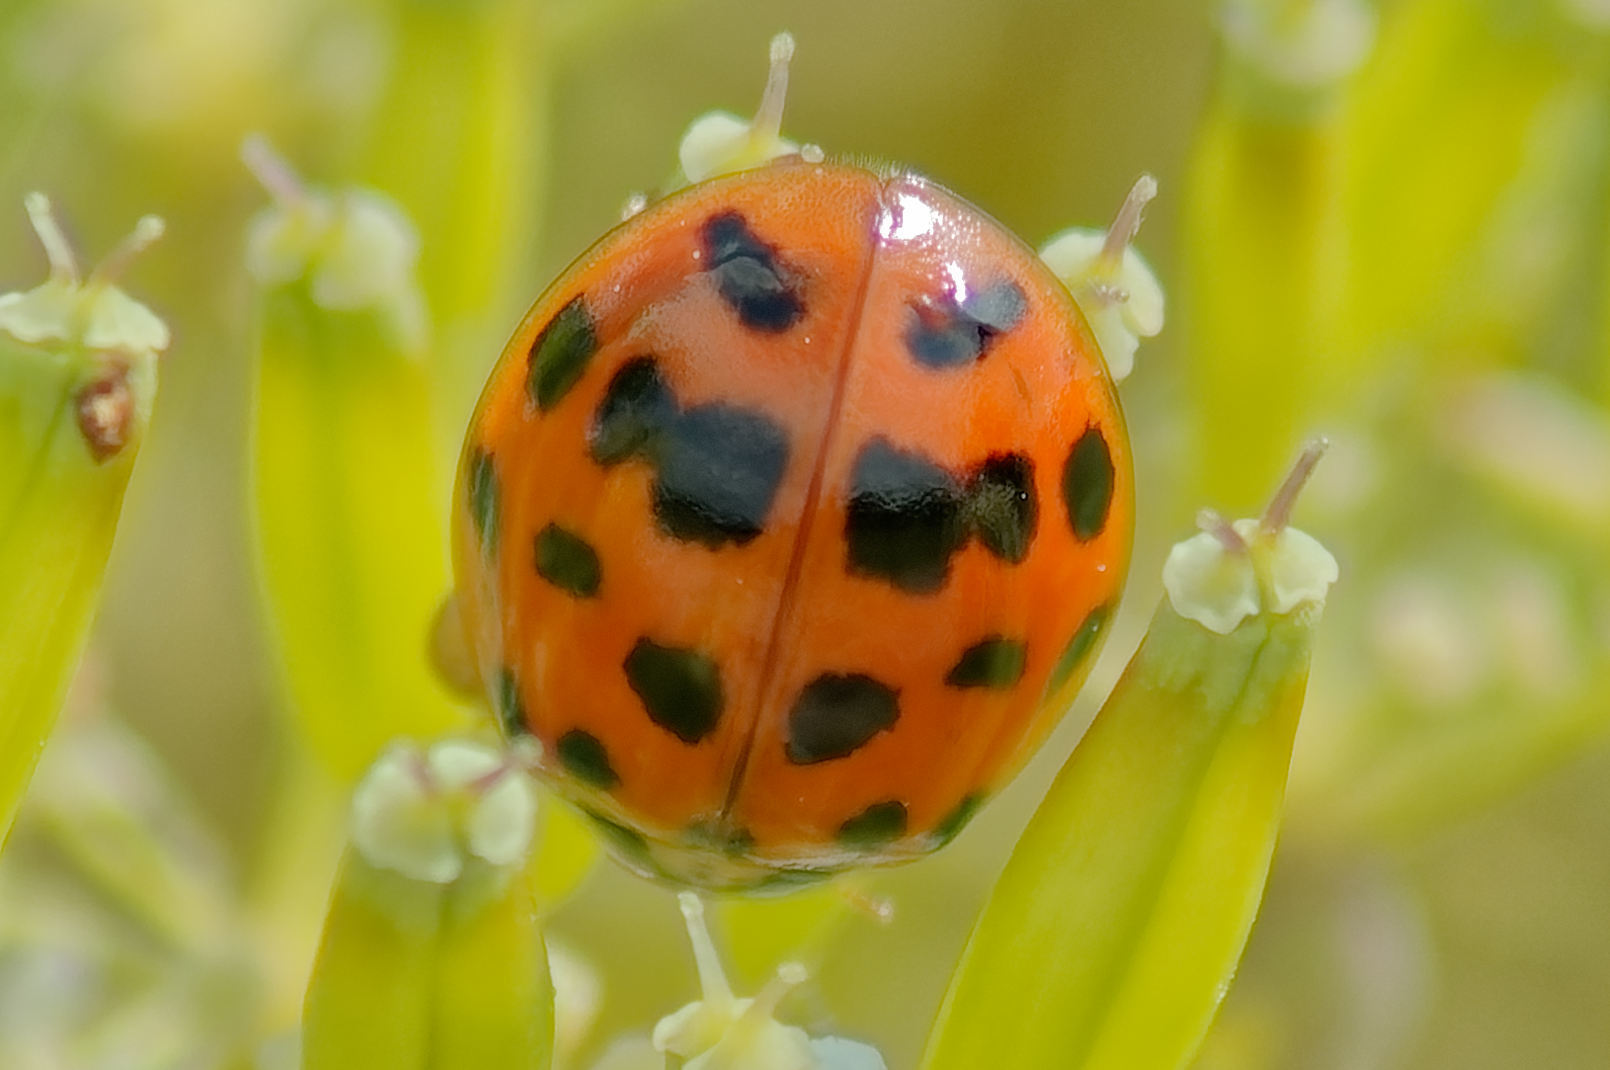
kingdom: Animalia
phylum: Arthropoda
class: Insecta
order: Coleoptera
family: Coccinellidae
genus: Harmonia
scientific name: Harmonia axyridis
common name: Harlequin ladybird
